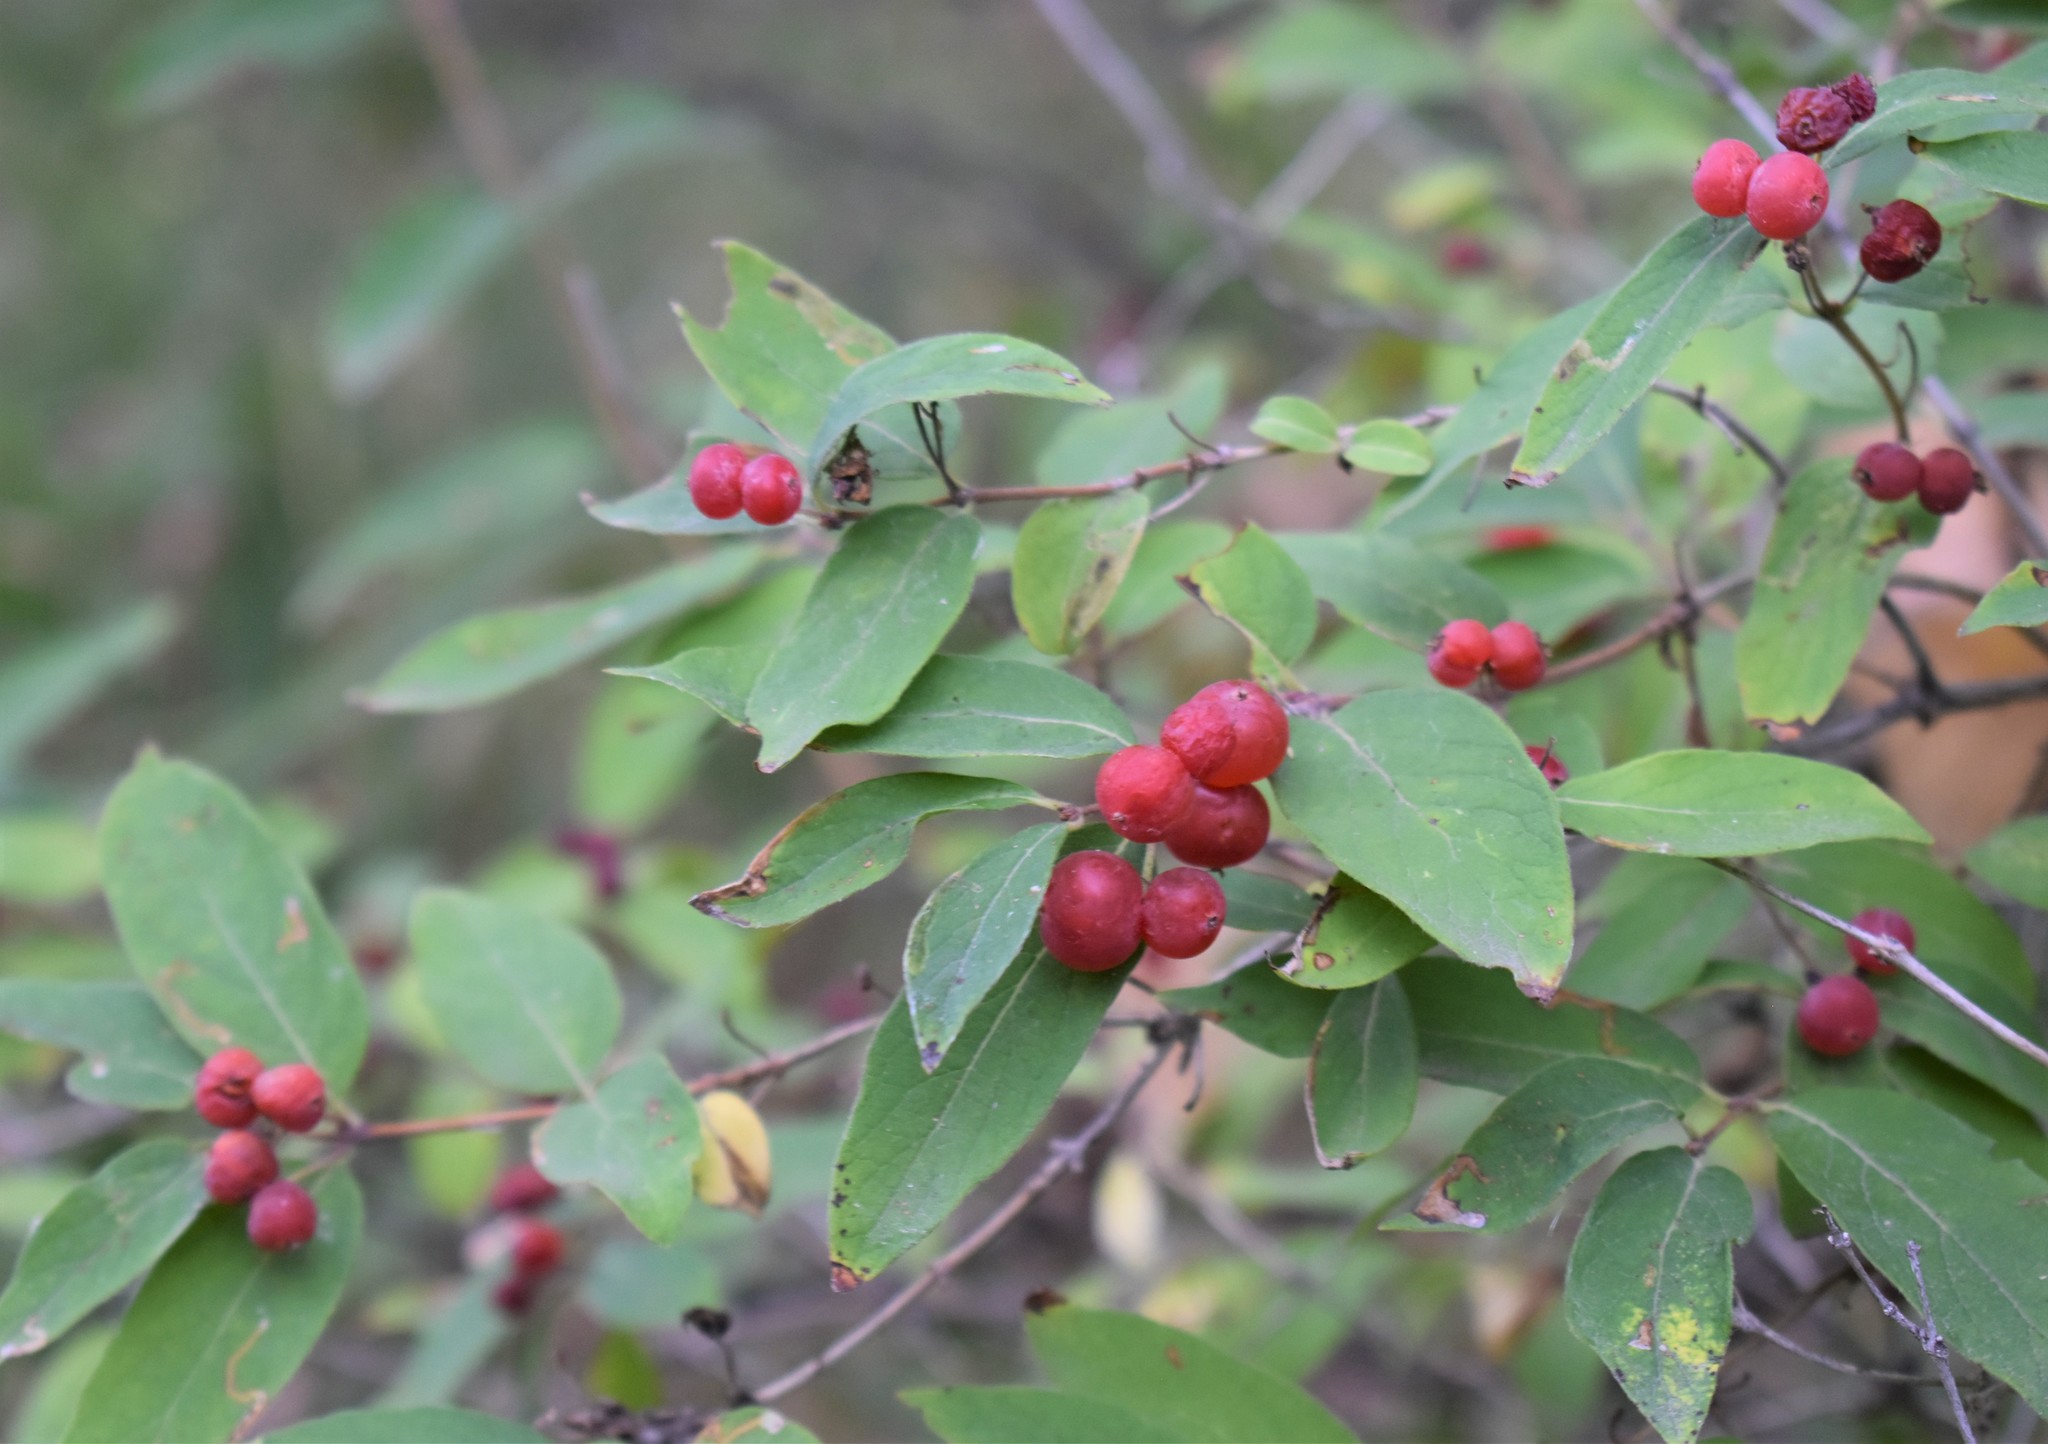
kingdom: Plantae
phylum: Tracheophyta
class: Magnoliopsida
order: Dipsacales
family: Caprifoliaceae
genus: Lonicera
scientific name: Lonicera tatarica
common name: Tatarian honeysuckle
